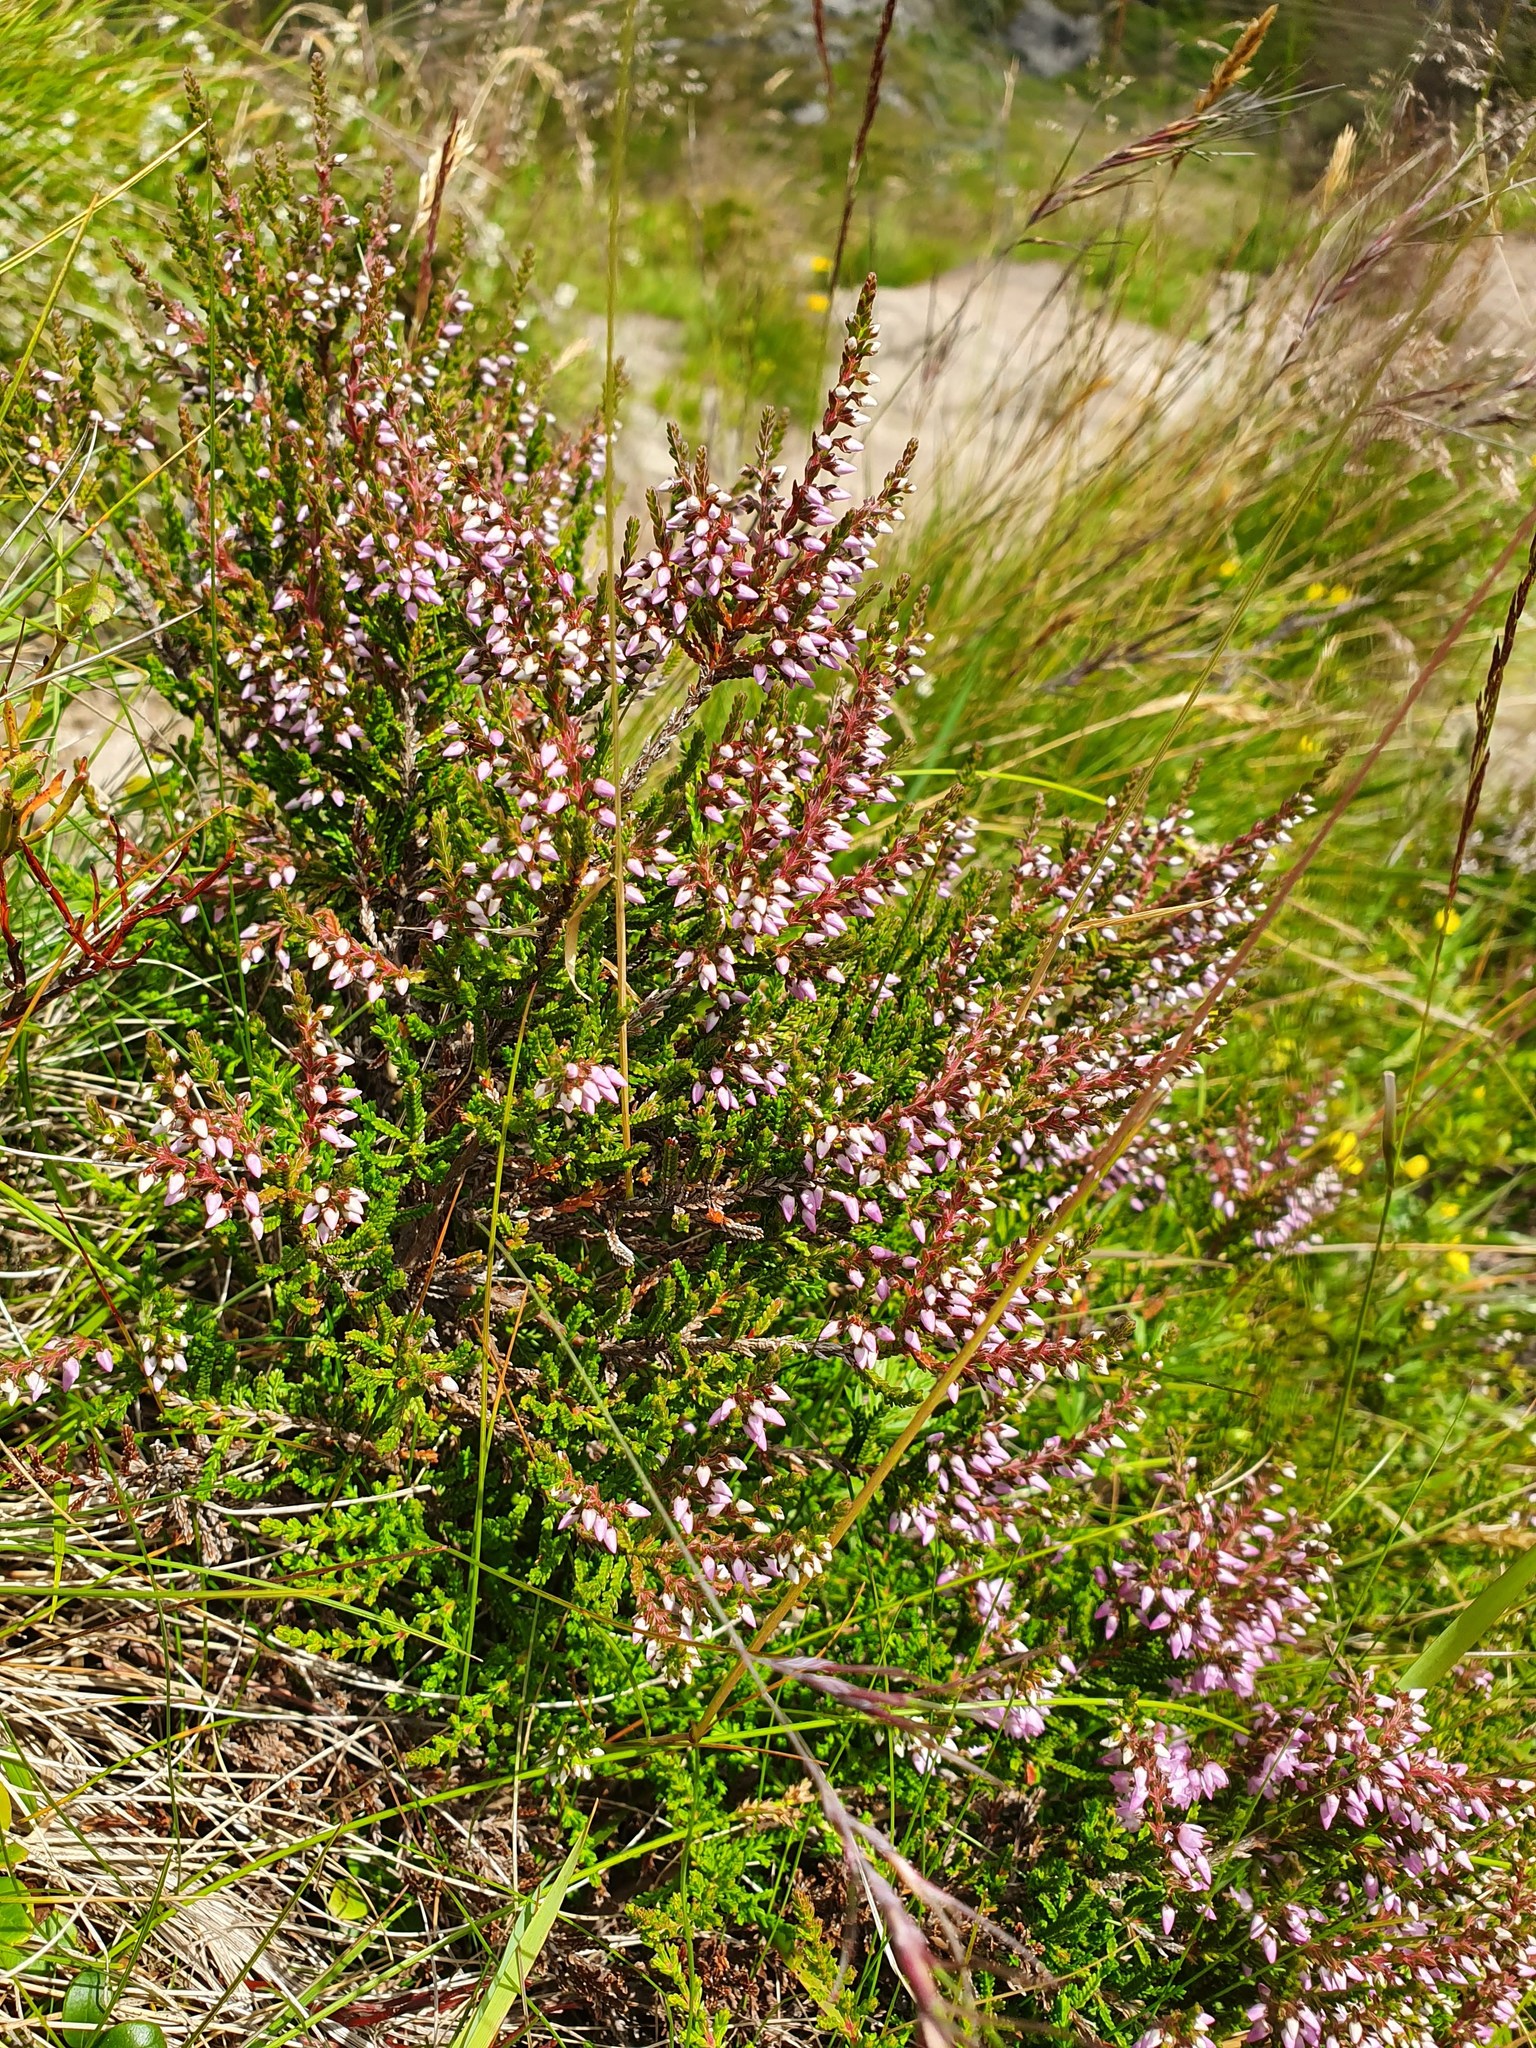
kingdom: Plantae
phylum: Tracheophyta
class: Magnoliopsida
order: Ericales
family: Ericaceae
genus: Calluna
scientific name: Calluna vulgaris
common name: Heather
